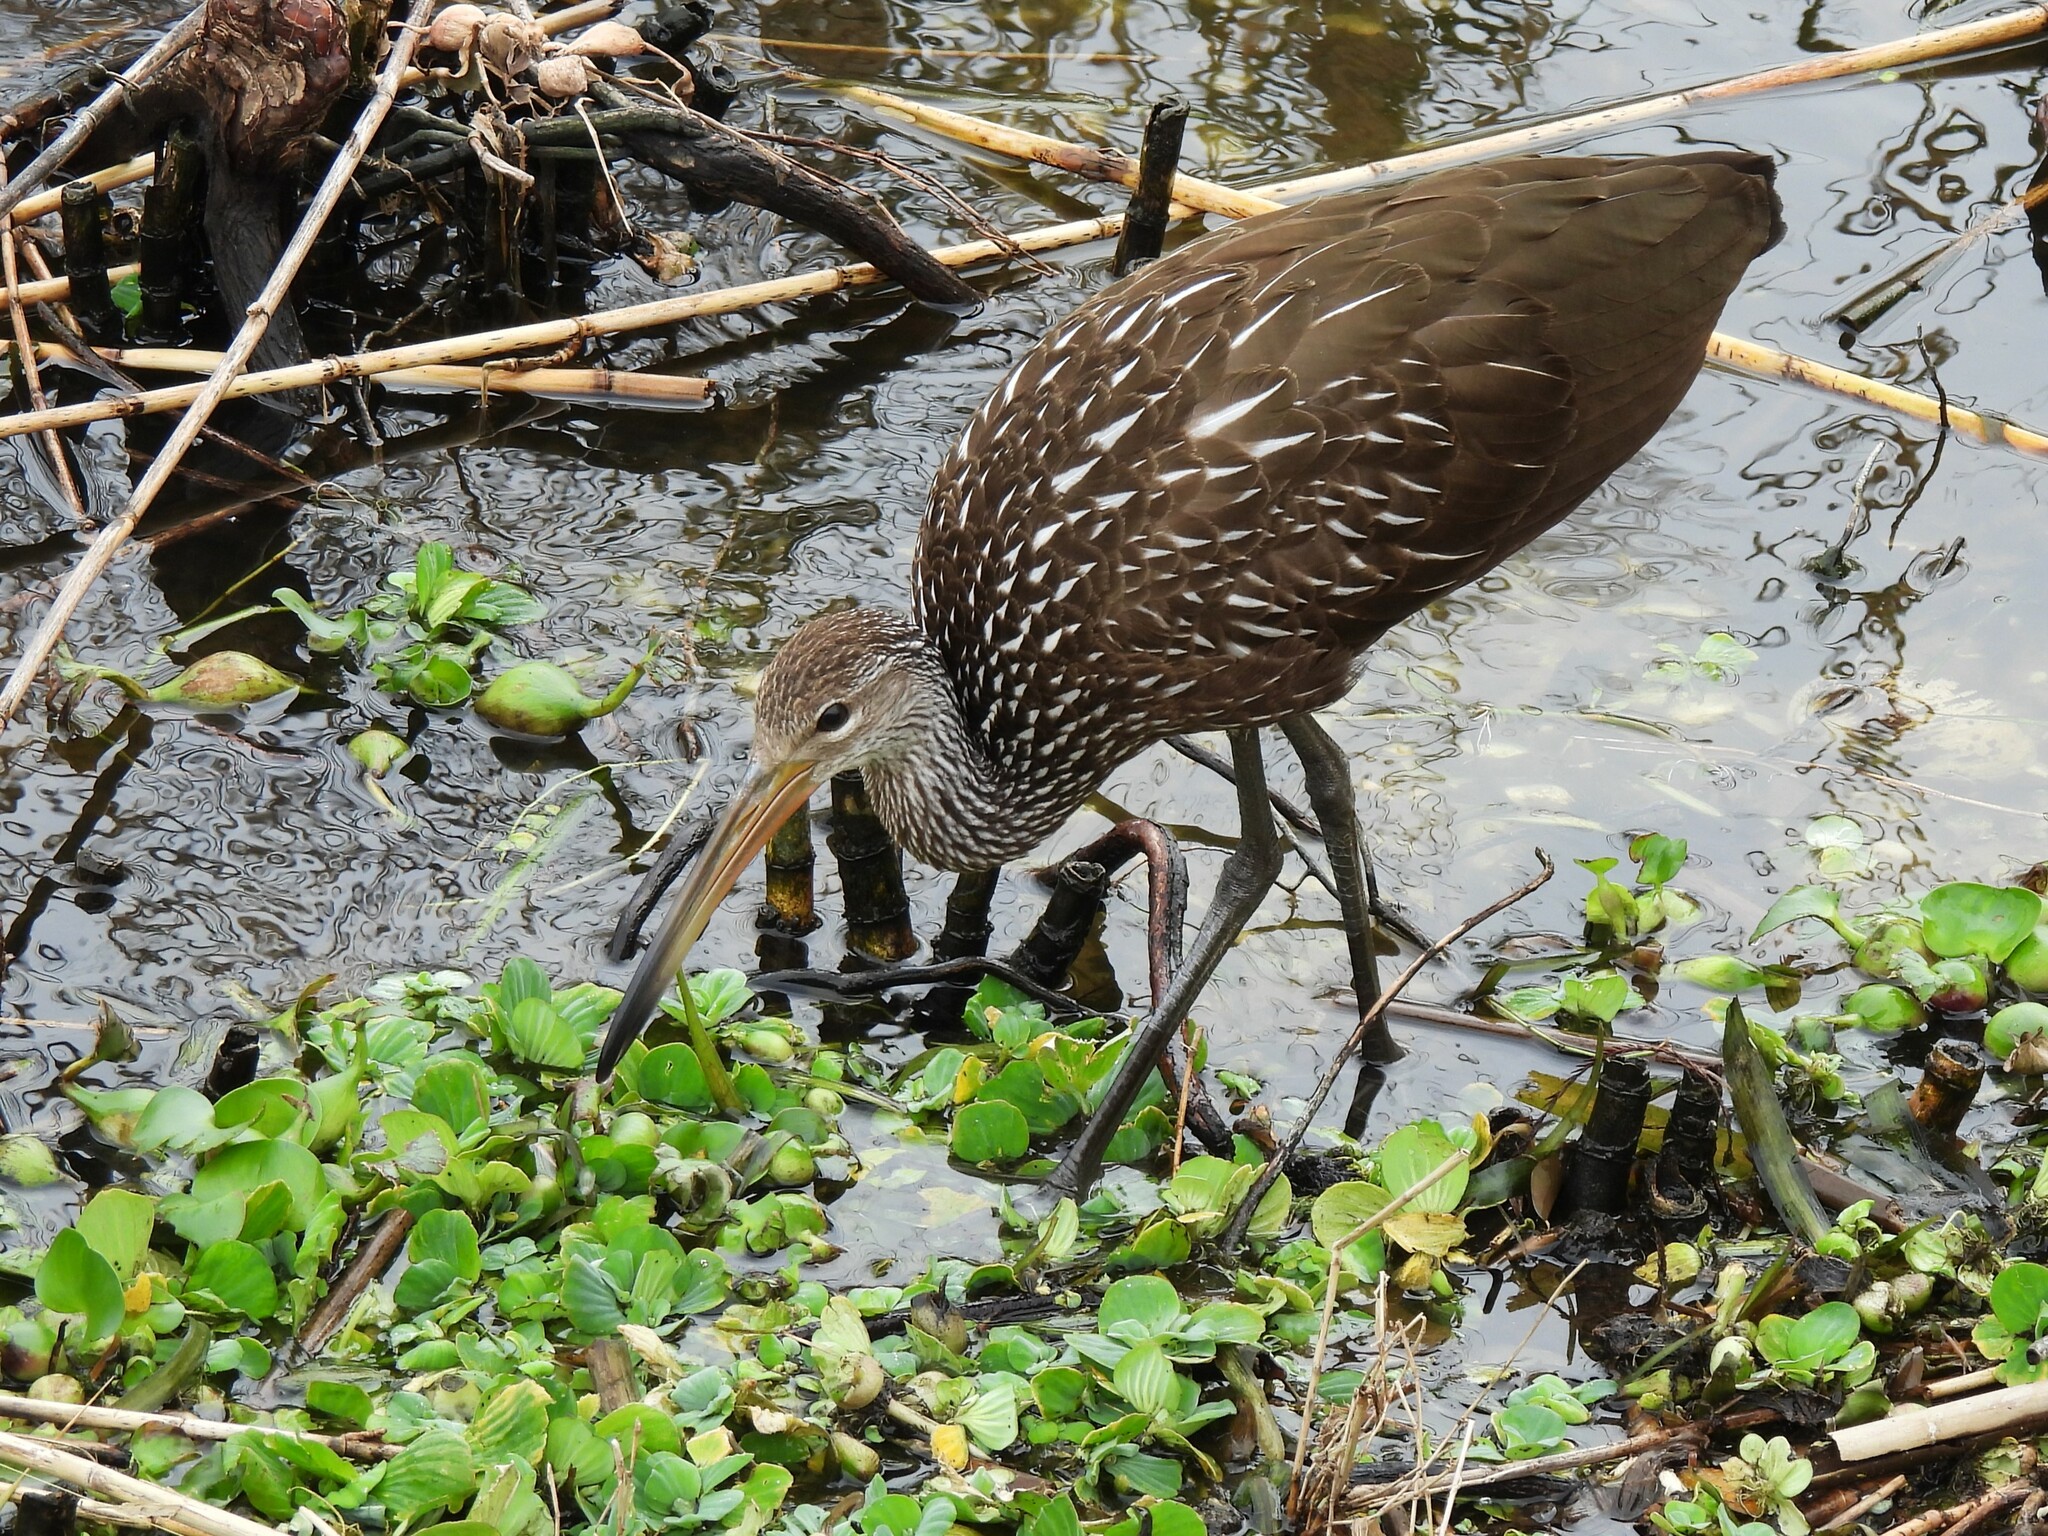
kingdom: Animalia
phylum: Chordata
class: Aves
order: Gruiformes
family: Aramidae
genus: Aramus
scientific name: Aramus guarauna
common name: Limpkin
